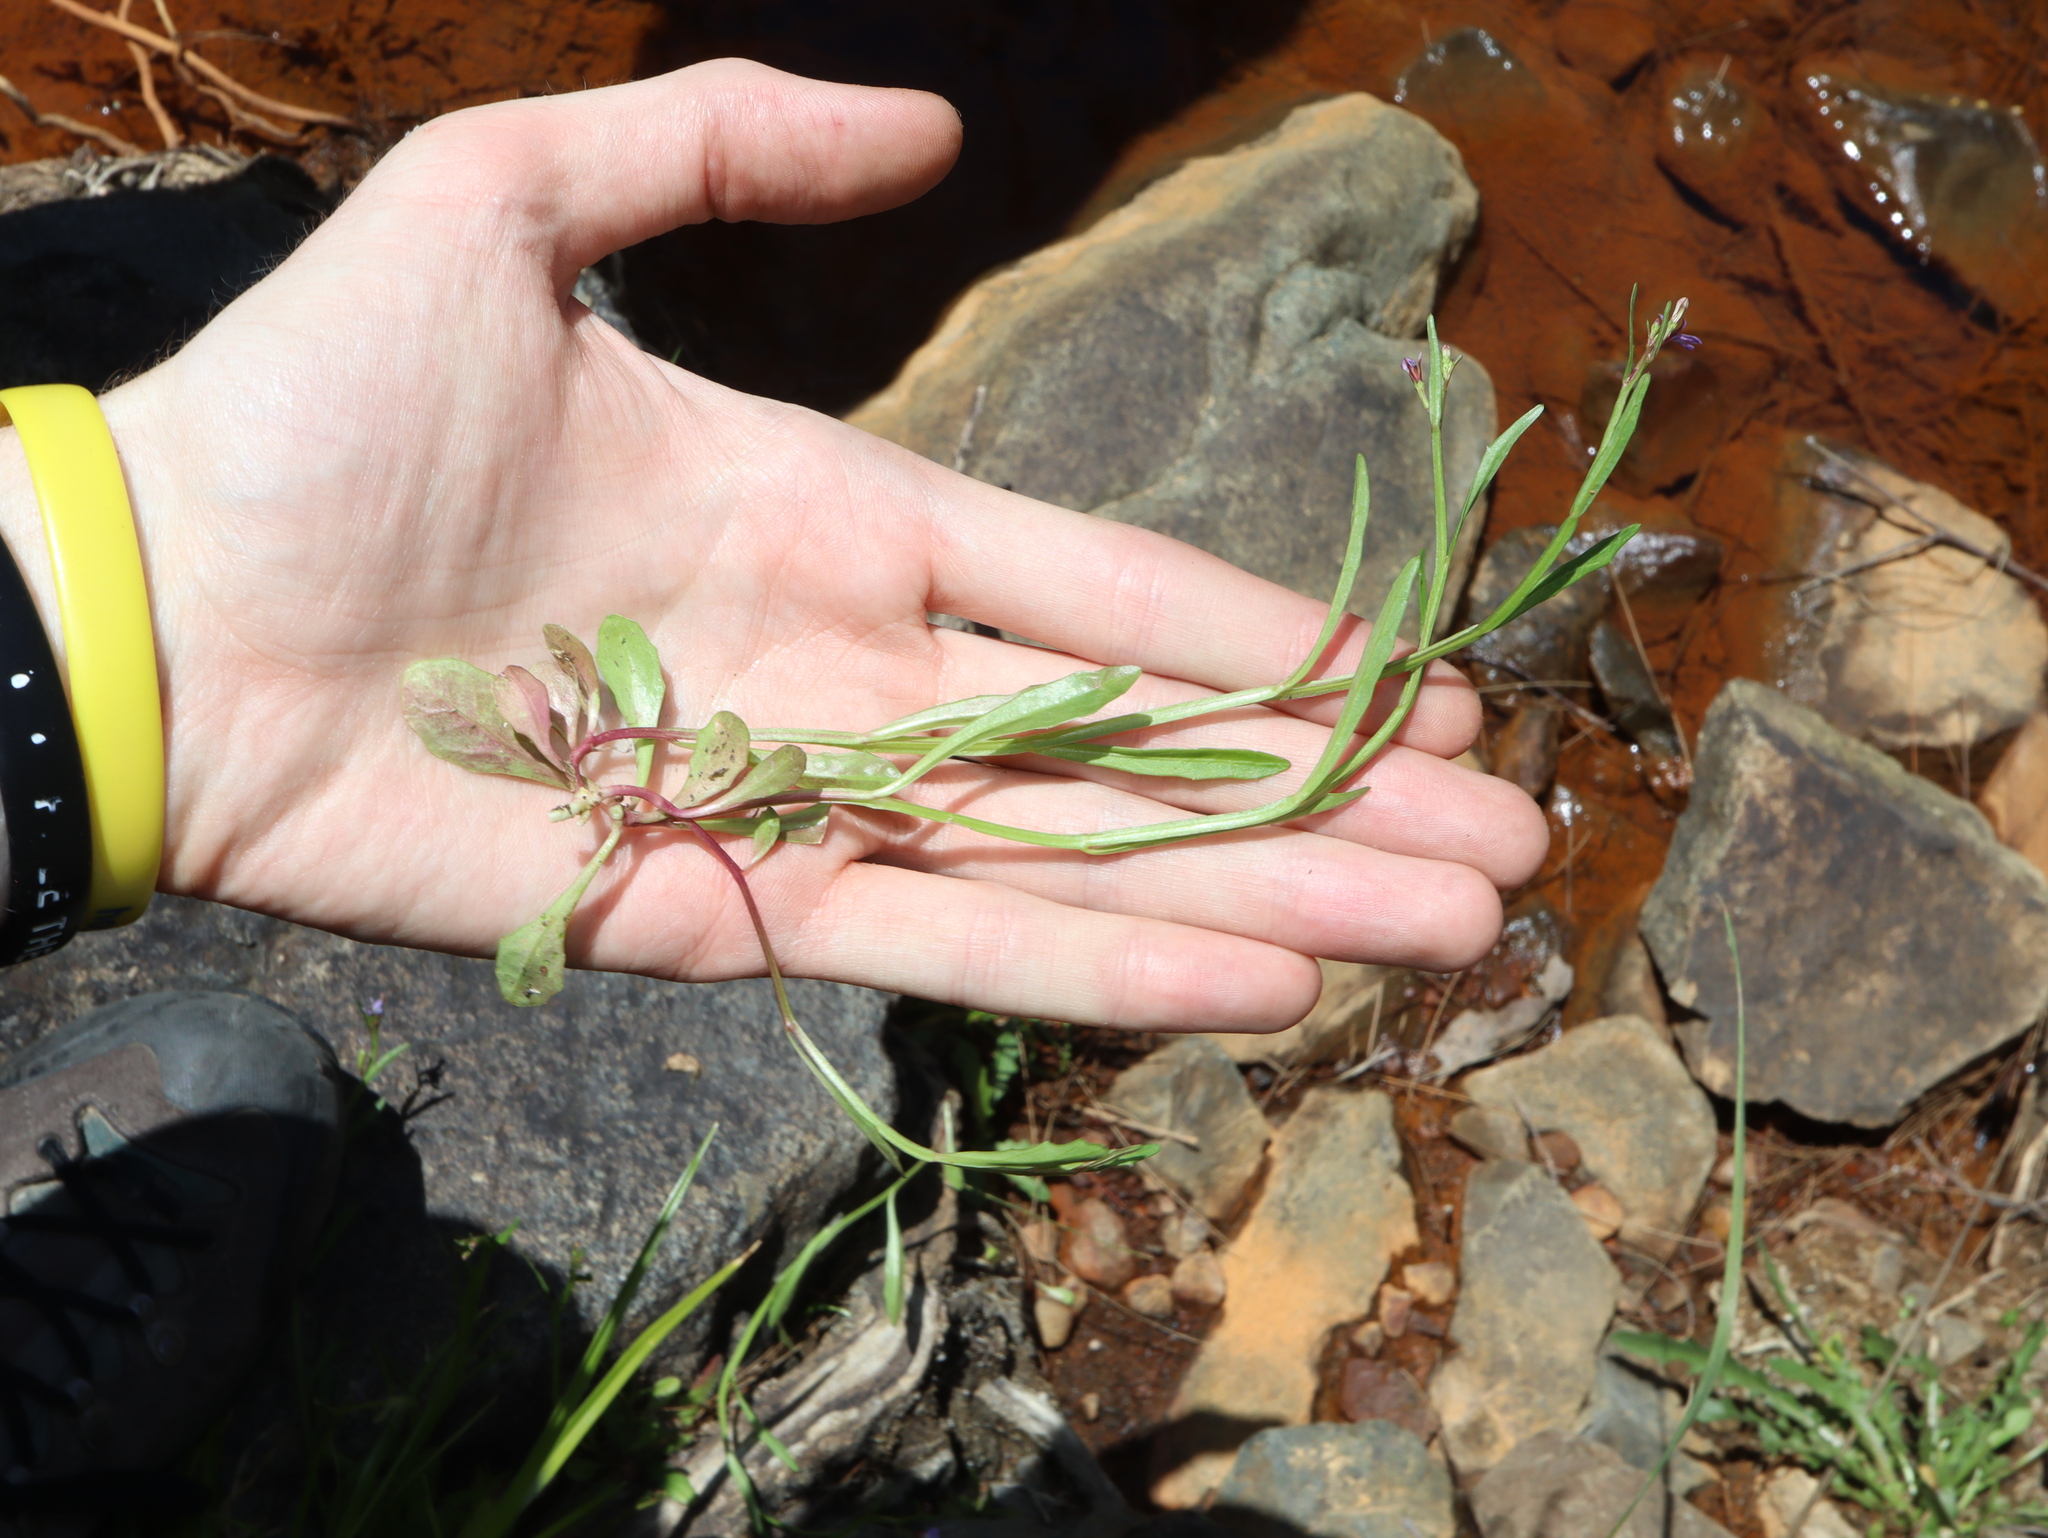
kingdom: Plantae
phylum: Tracheophyta
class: Magnoliopsida
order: Asterales
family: Campanulaceae
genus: Lobelia
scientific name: Lobelia anceps
